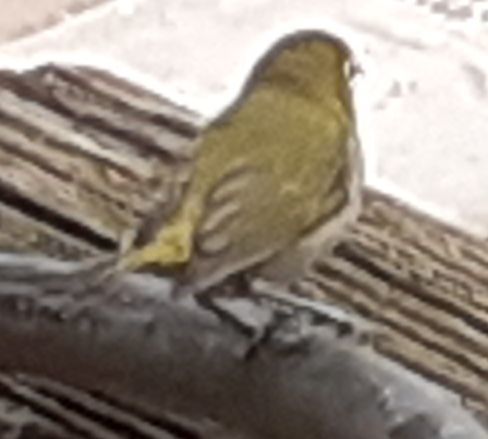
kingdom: Animalia
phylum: Chordata
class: Aves
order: Passeriformes
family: Zosteropidae
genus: Zosterops
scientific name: Zosterops virens
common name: Cape white-eye
